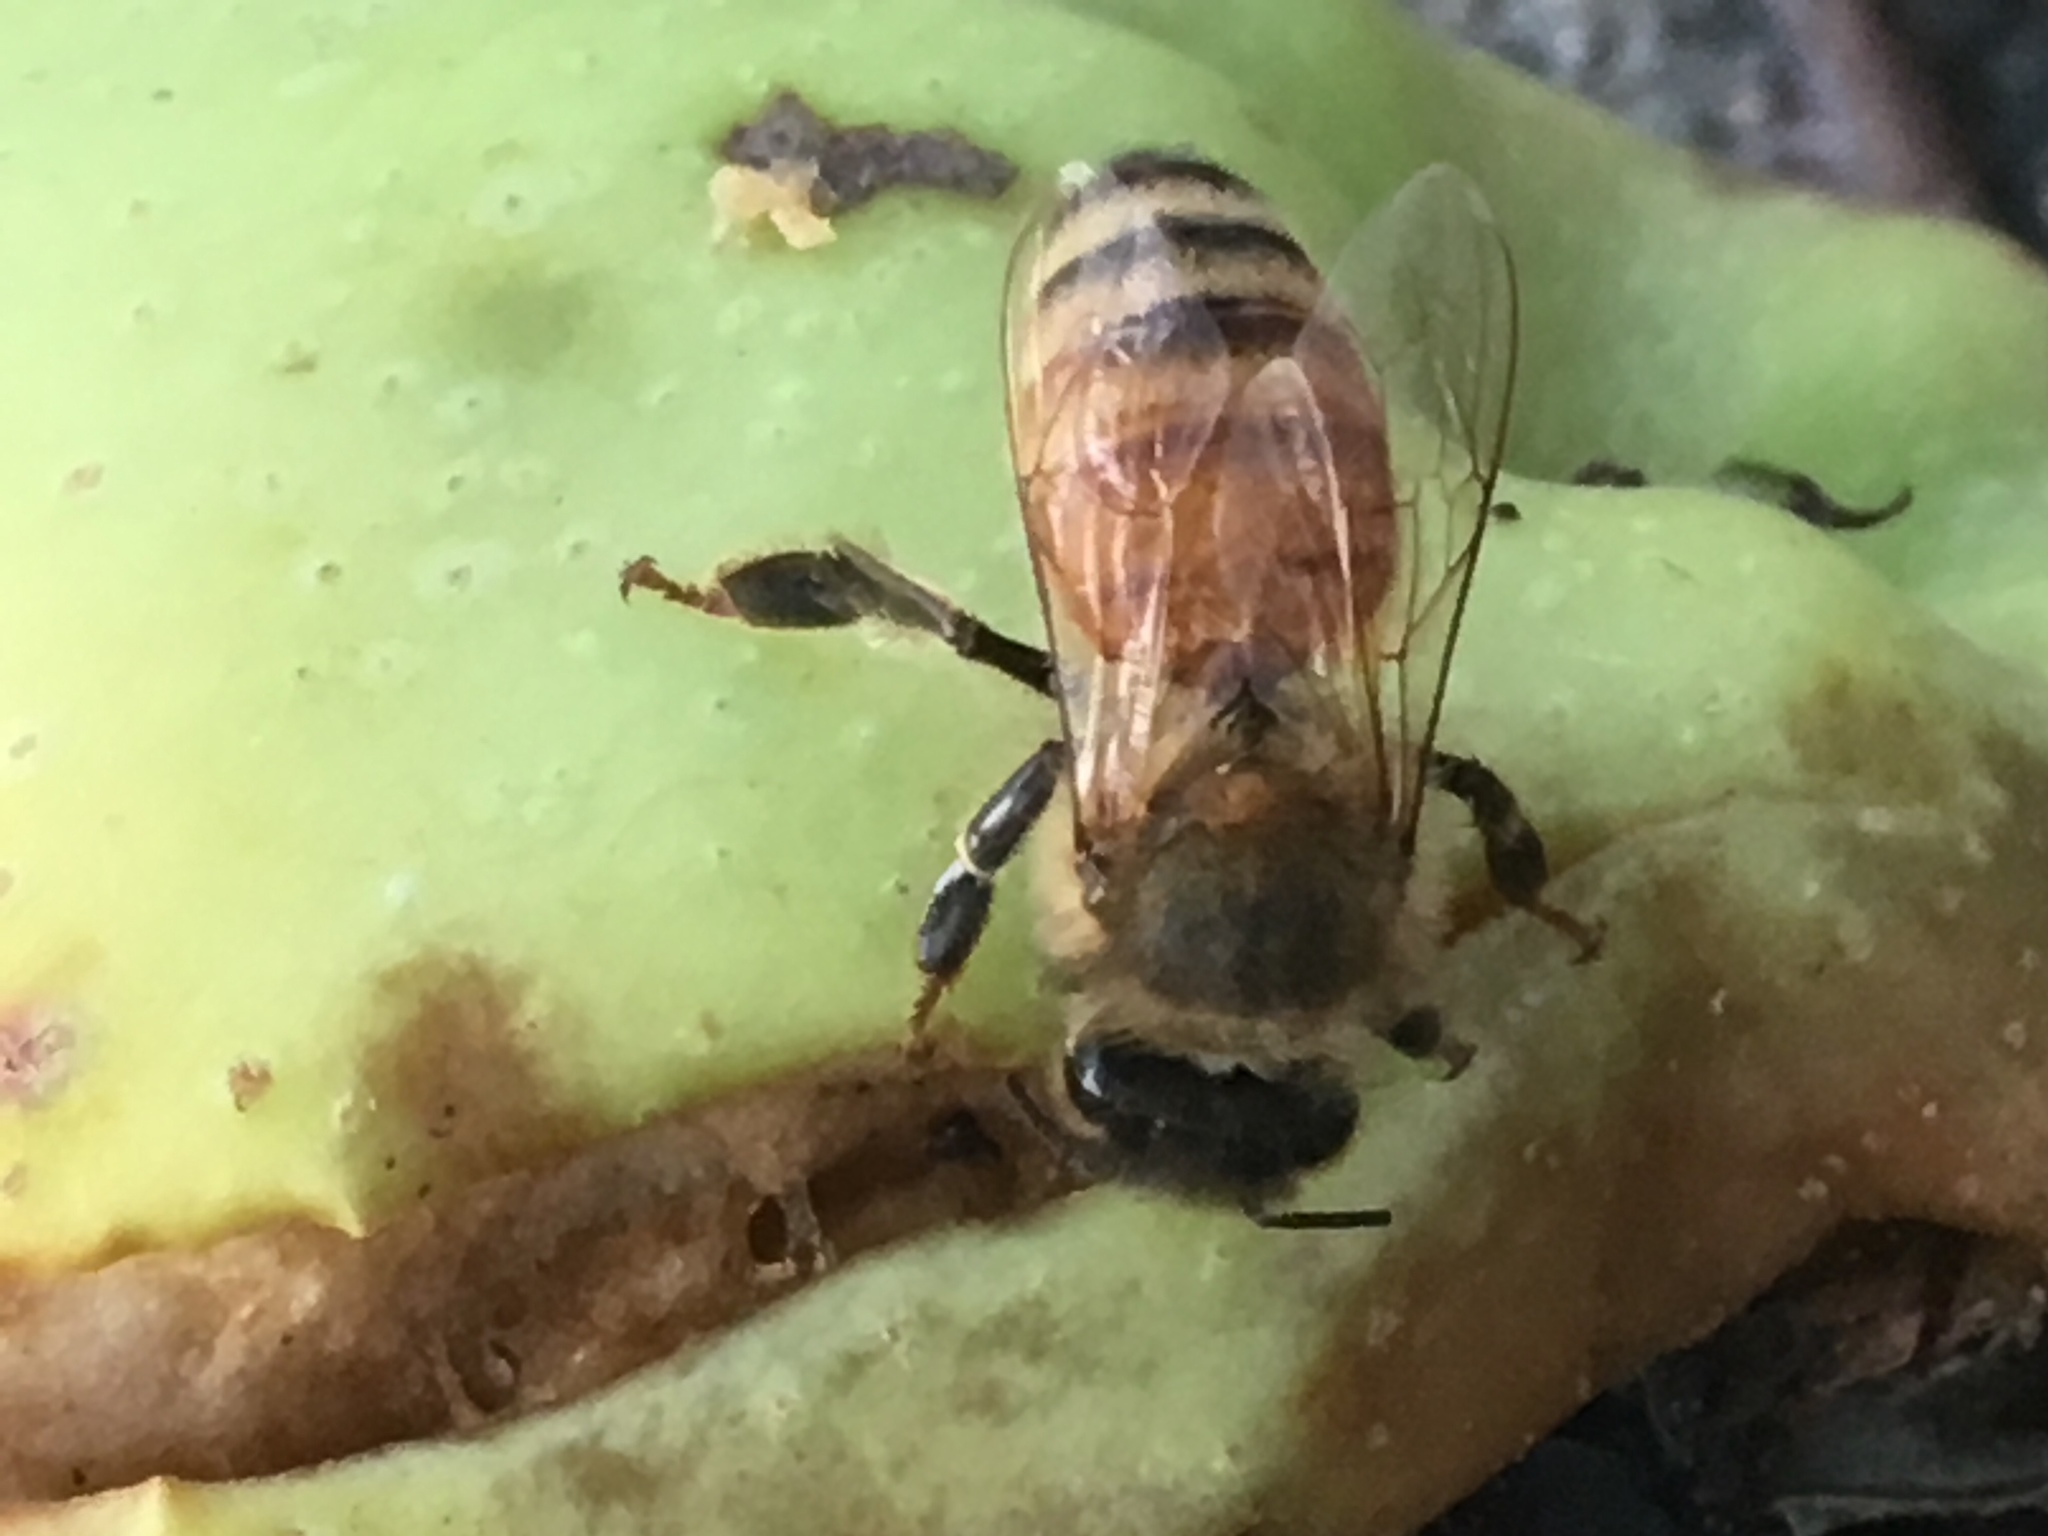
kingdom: Animalia
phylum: Arthropoda
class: Insecta
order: Hymenoptera
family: Apidae
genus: Apis
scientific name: Apis mellifera
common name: Honey bee
